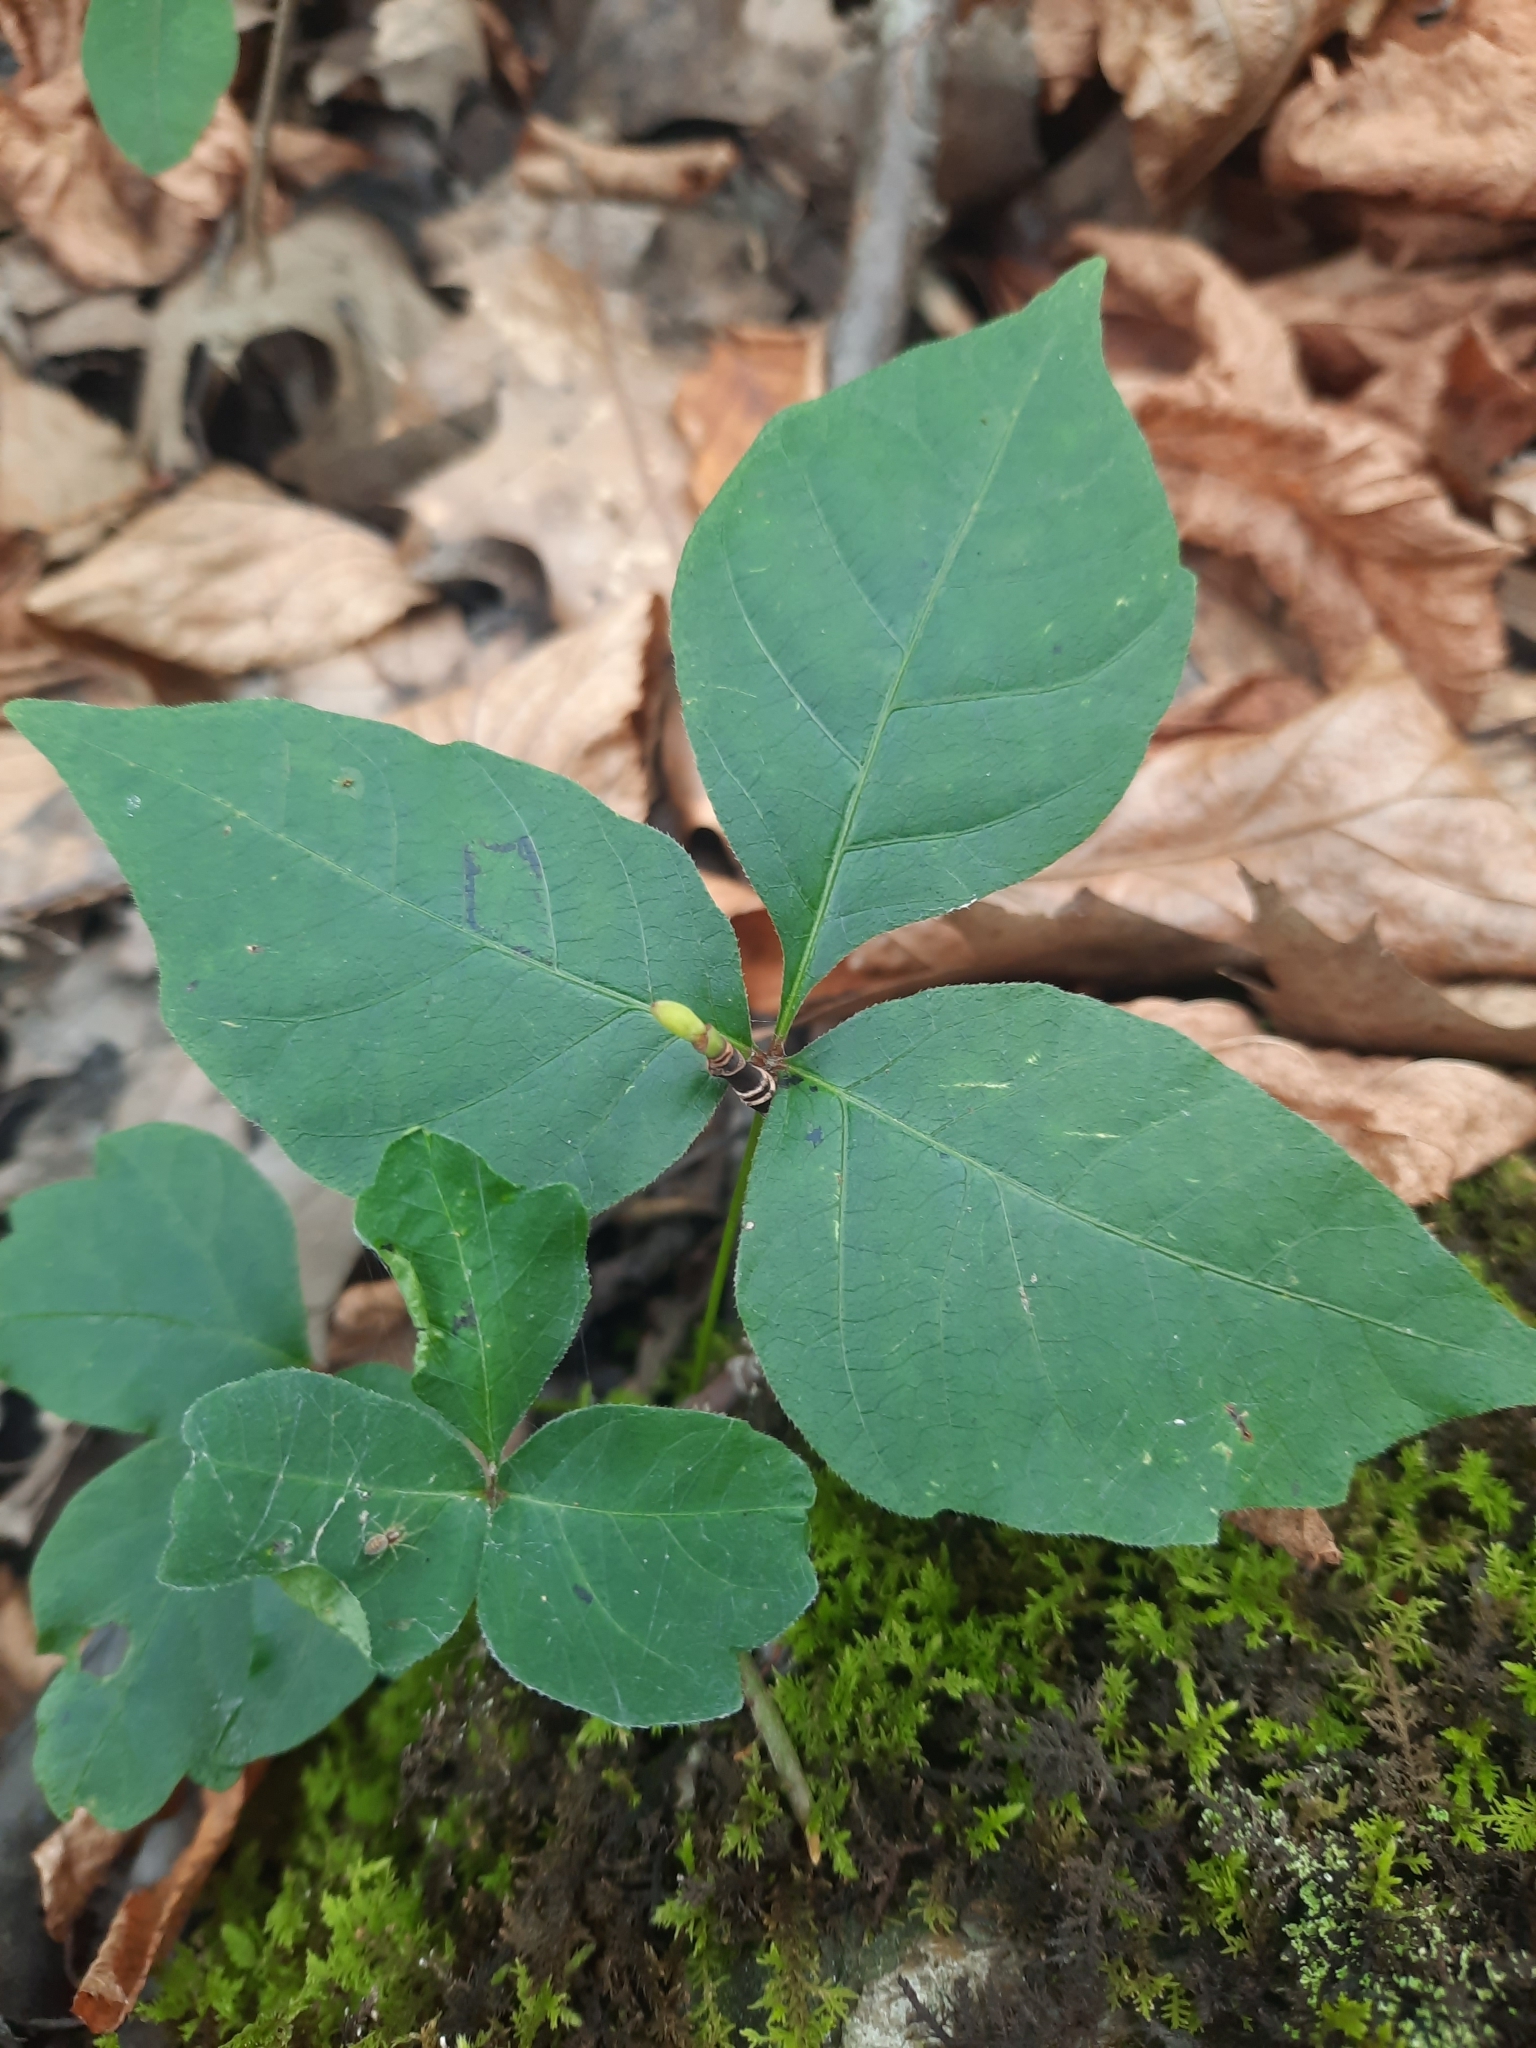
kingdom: Plantae
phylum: Tracheophyta
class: Magnoliopsida
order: Sapindales
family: Anacardiaceae
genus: Toxicodendron
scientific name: Toxicodendron radicans
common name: Poison ivy
